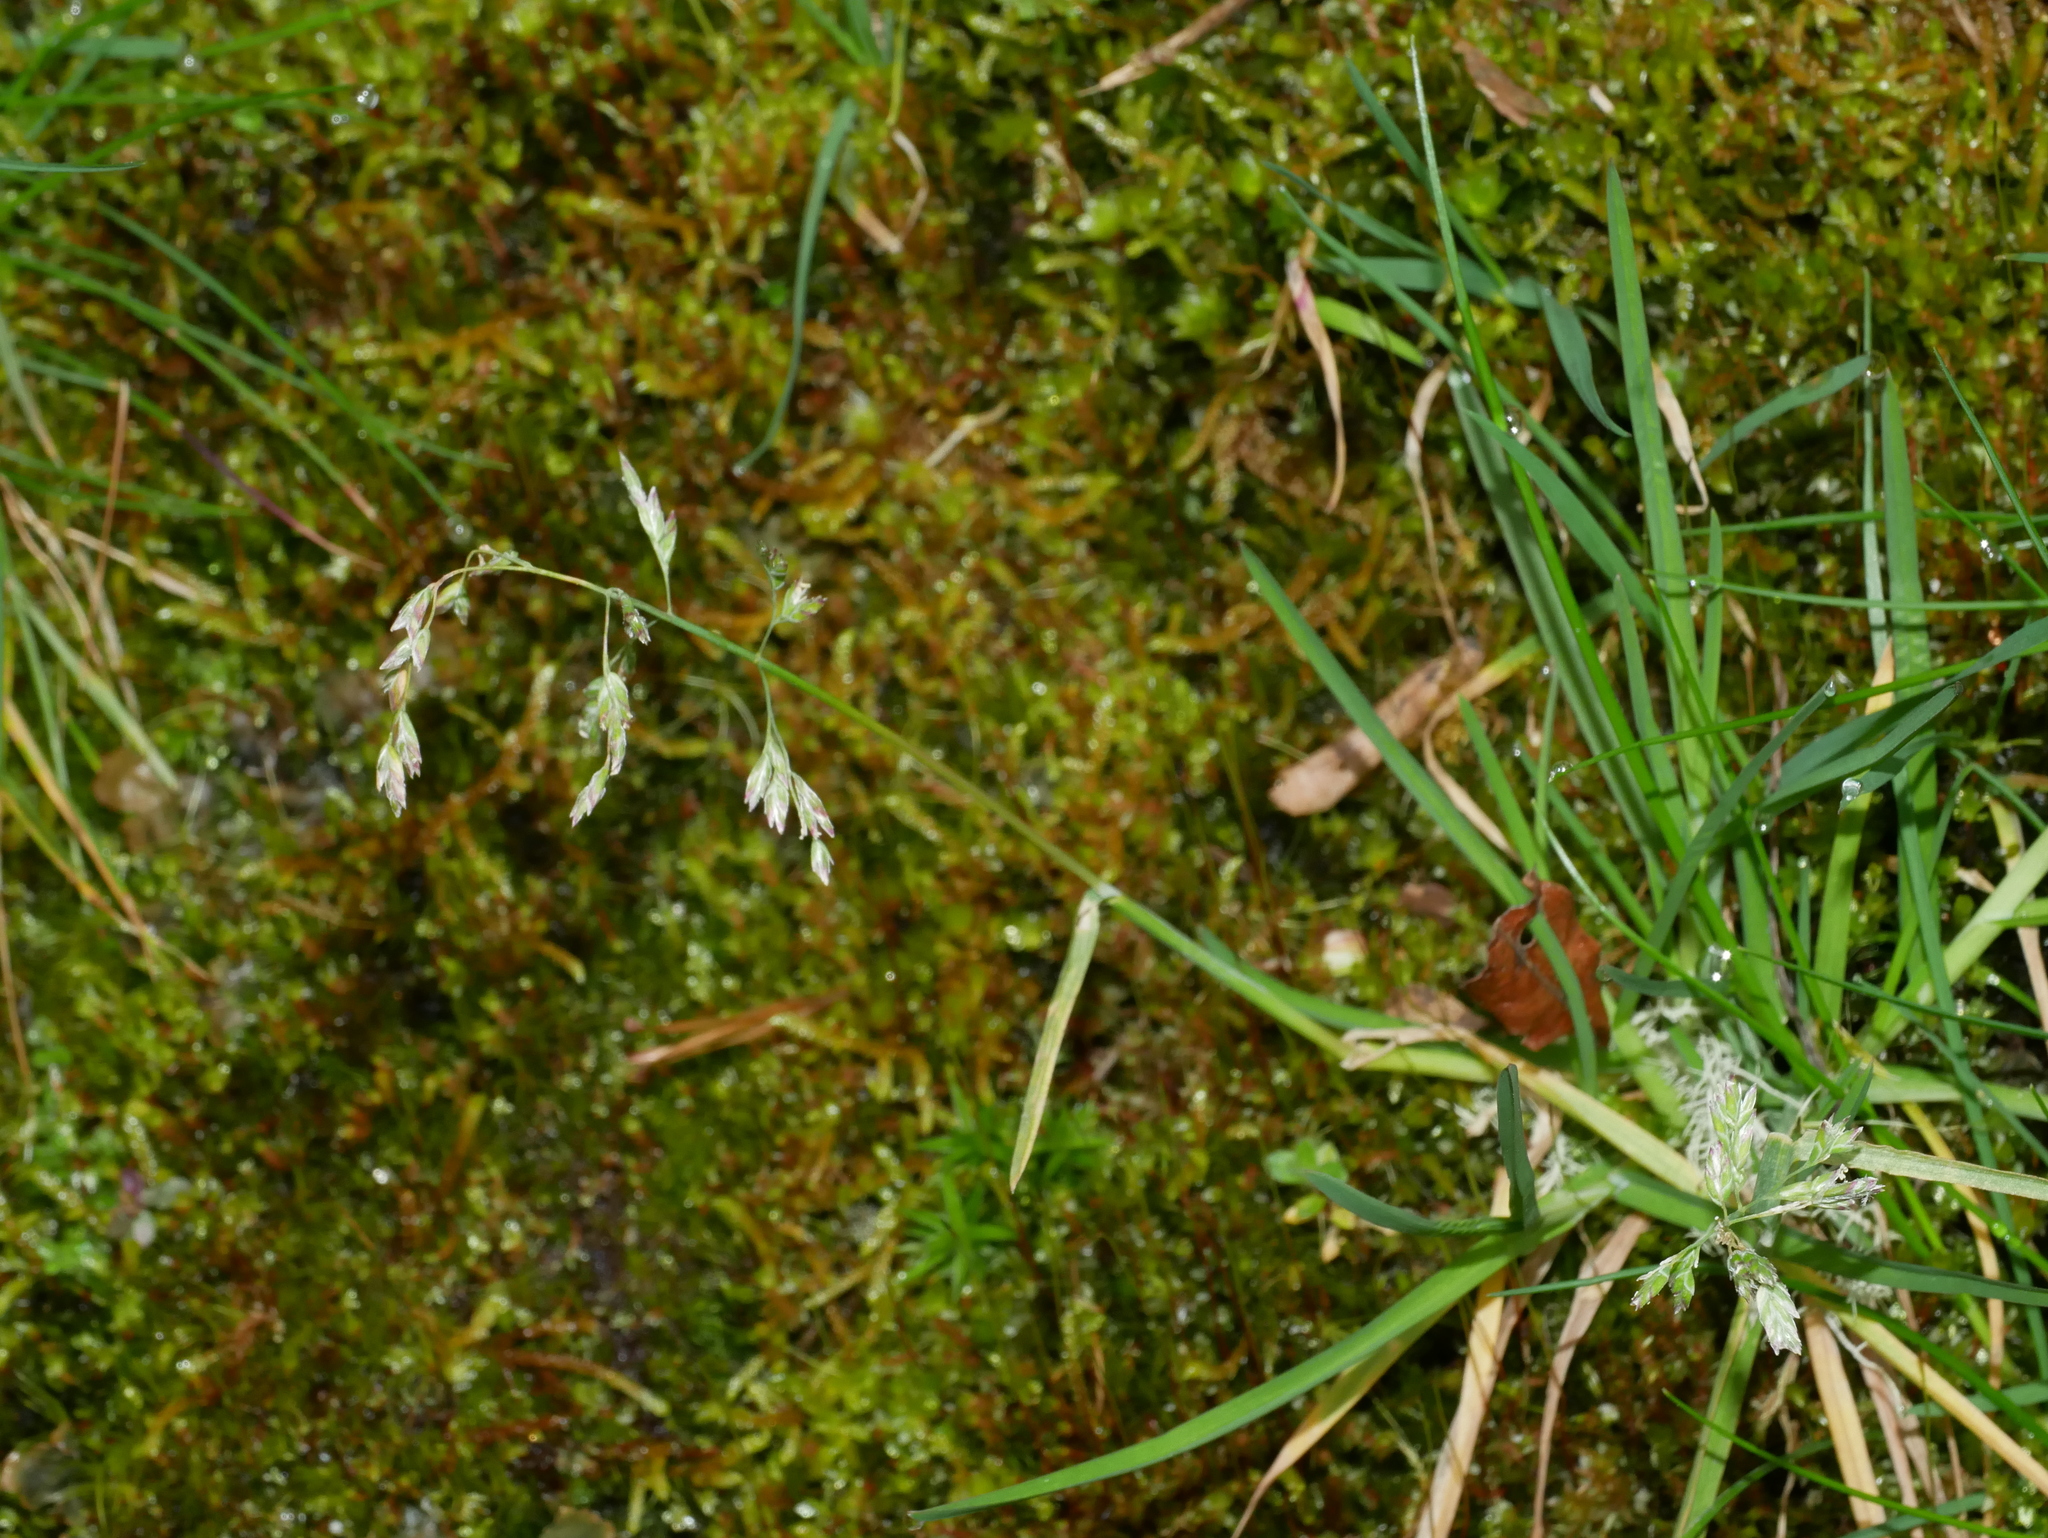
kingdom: Plantae
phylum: Tracheophyta
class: Liliopsida
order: Poales
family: Poaceae
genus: Poa
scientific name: Poa annua
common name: Annual bluegrass
